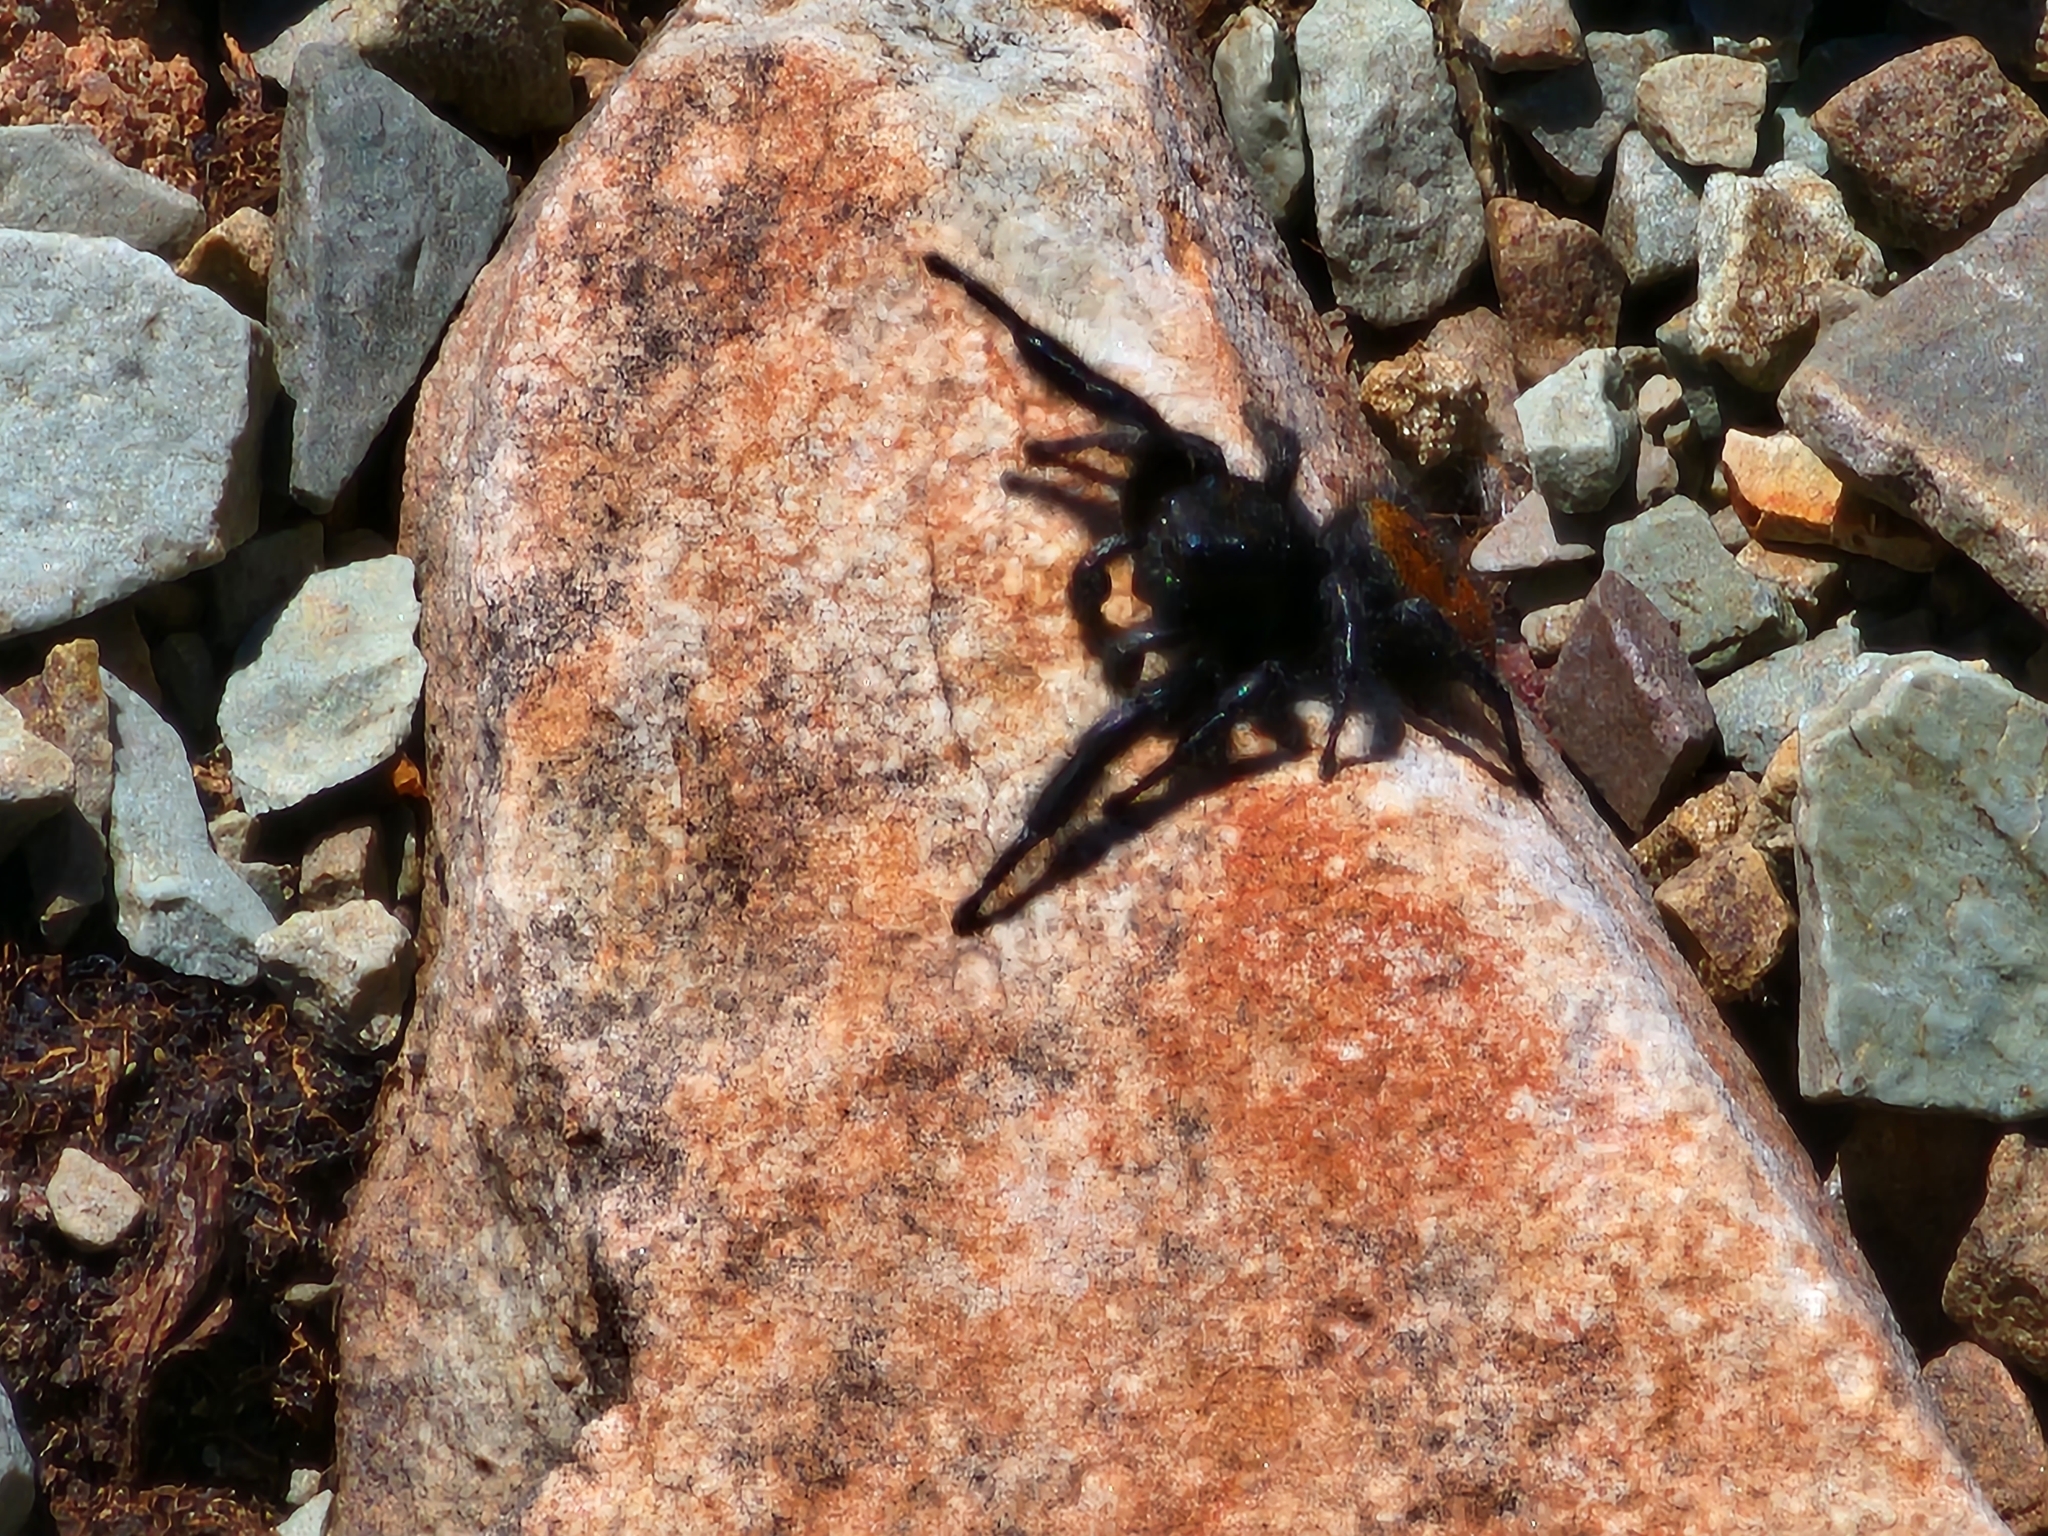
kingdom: Animalia
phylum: Arthropoda
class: Arachnida
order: Araneae
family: Salticidae
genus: Phidippus
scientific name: Phidippus johnsoni
